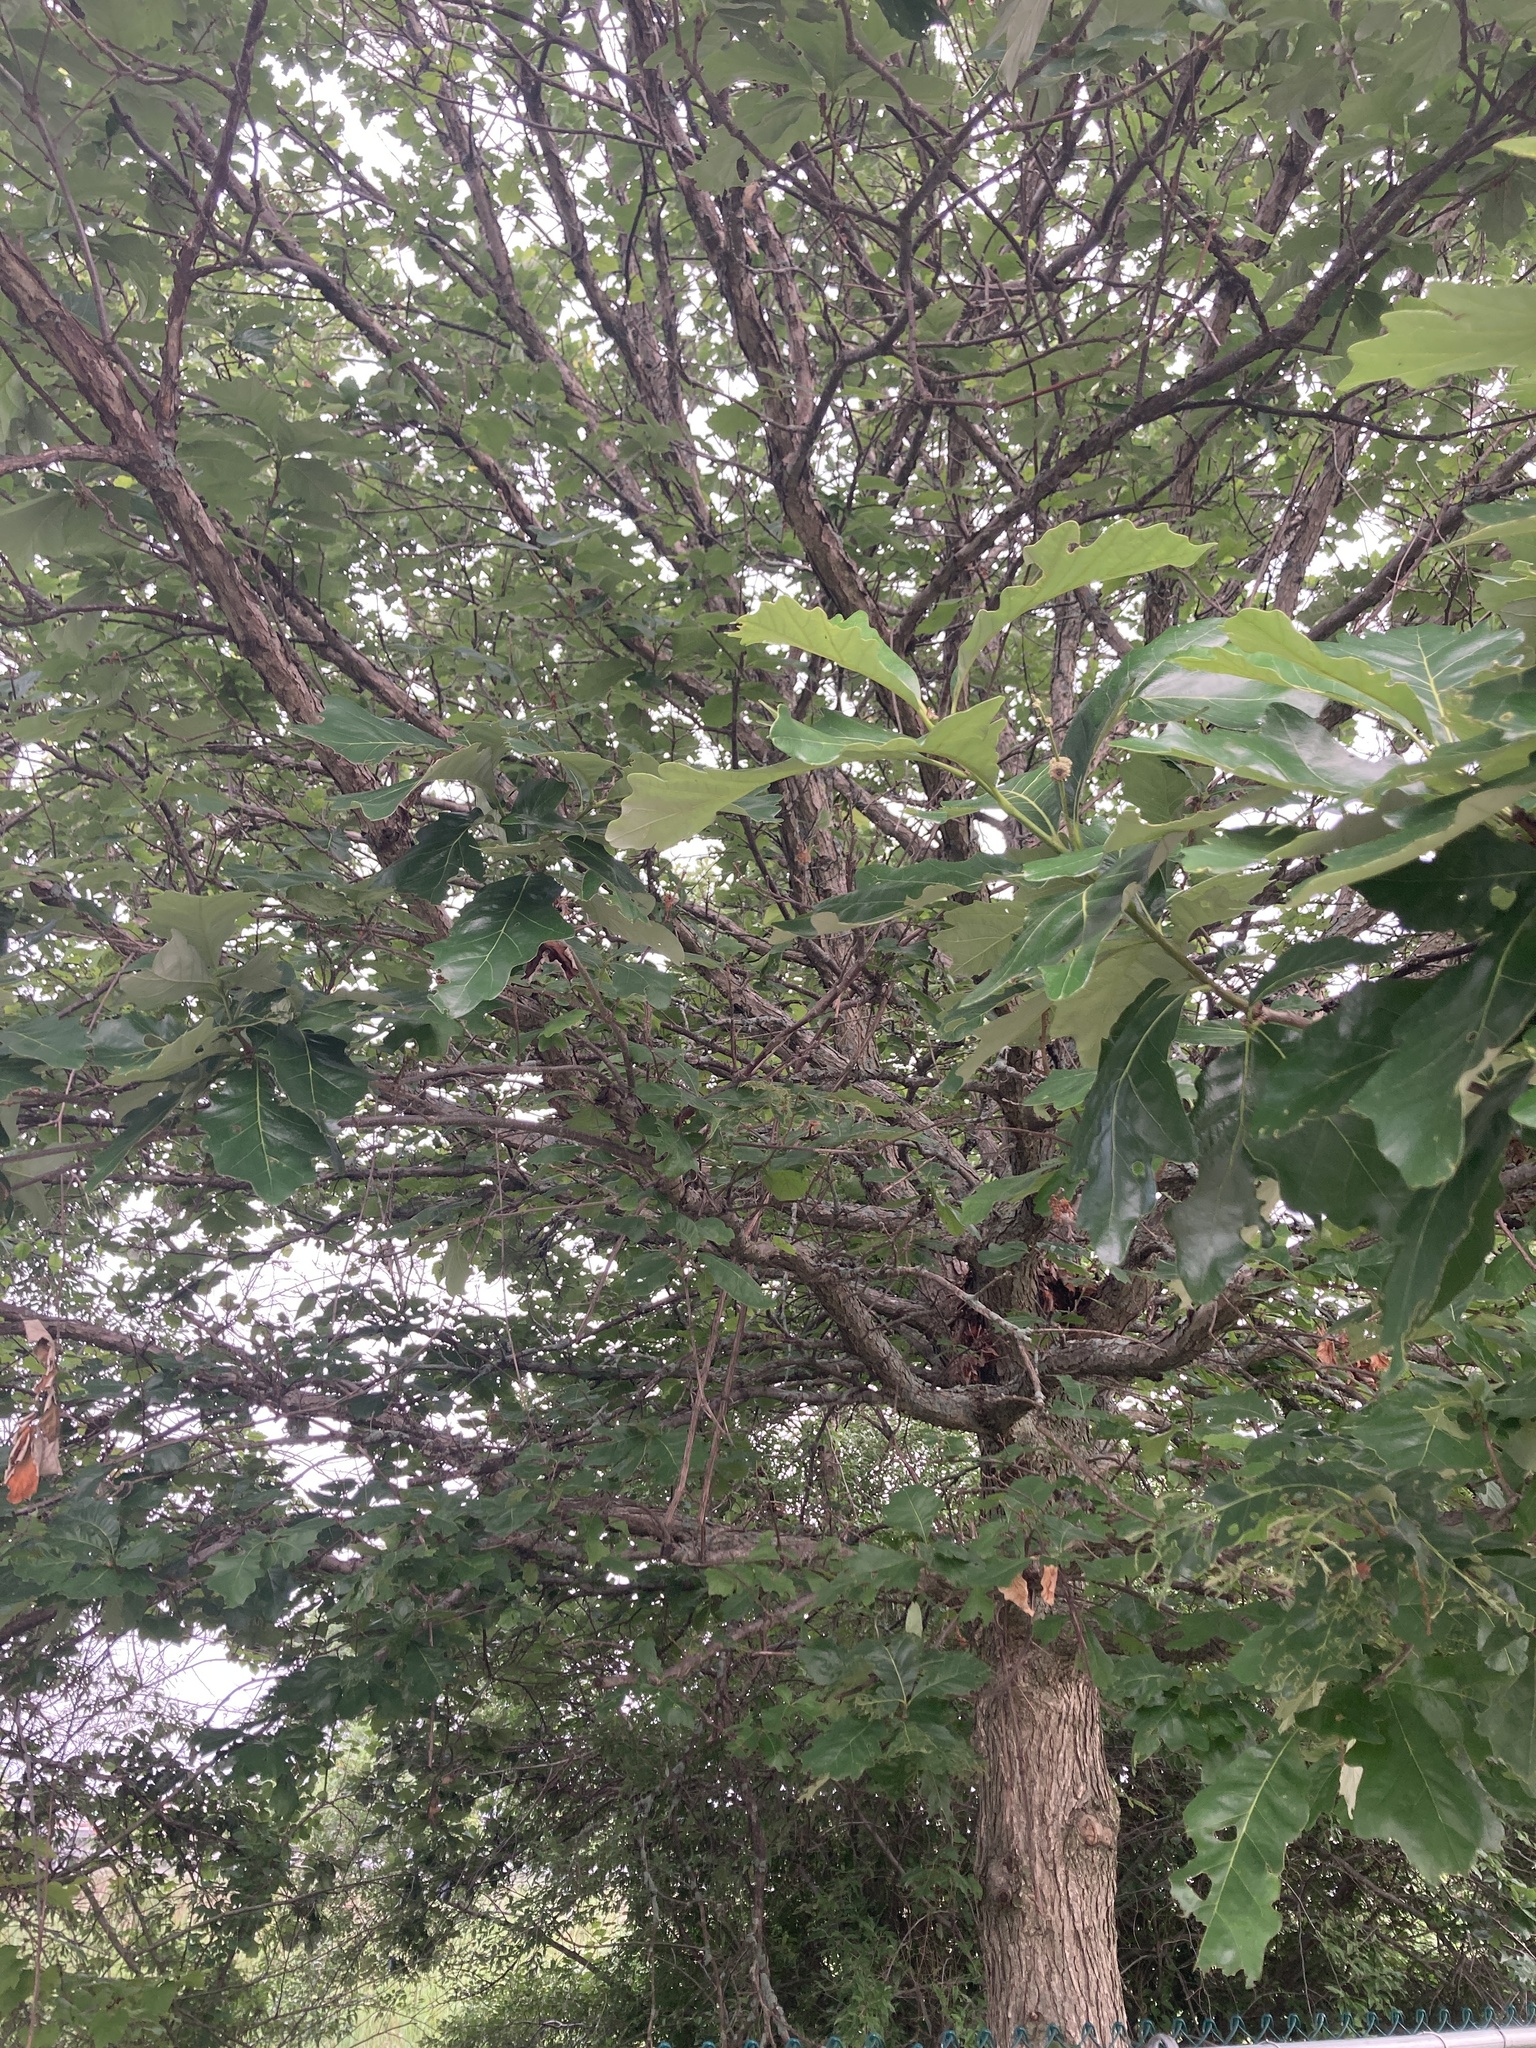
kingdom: Plantae
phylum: Tracheophyta
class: Magnoliopsida
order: Fagales
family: Fagaceae
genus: Quercus
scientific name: Quercus bicolor
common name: Swamp white oak
